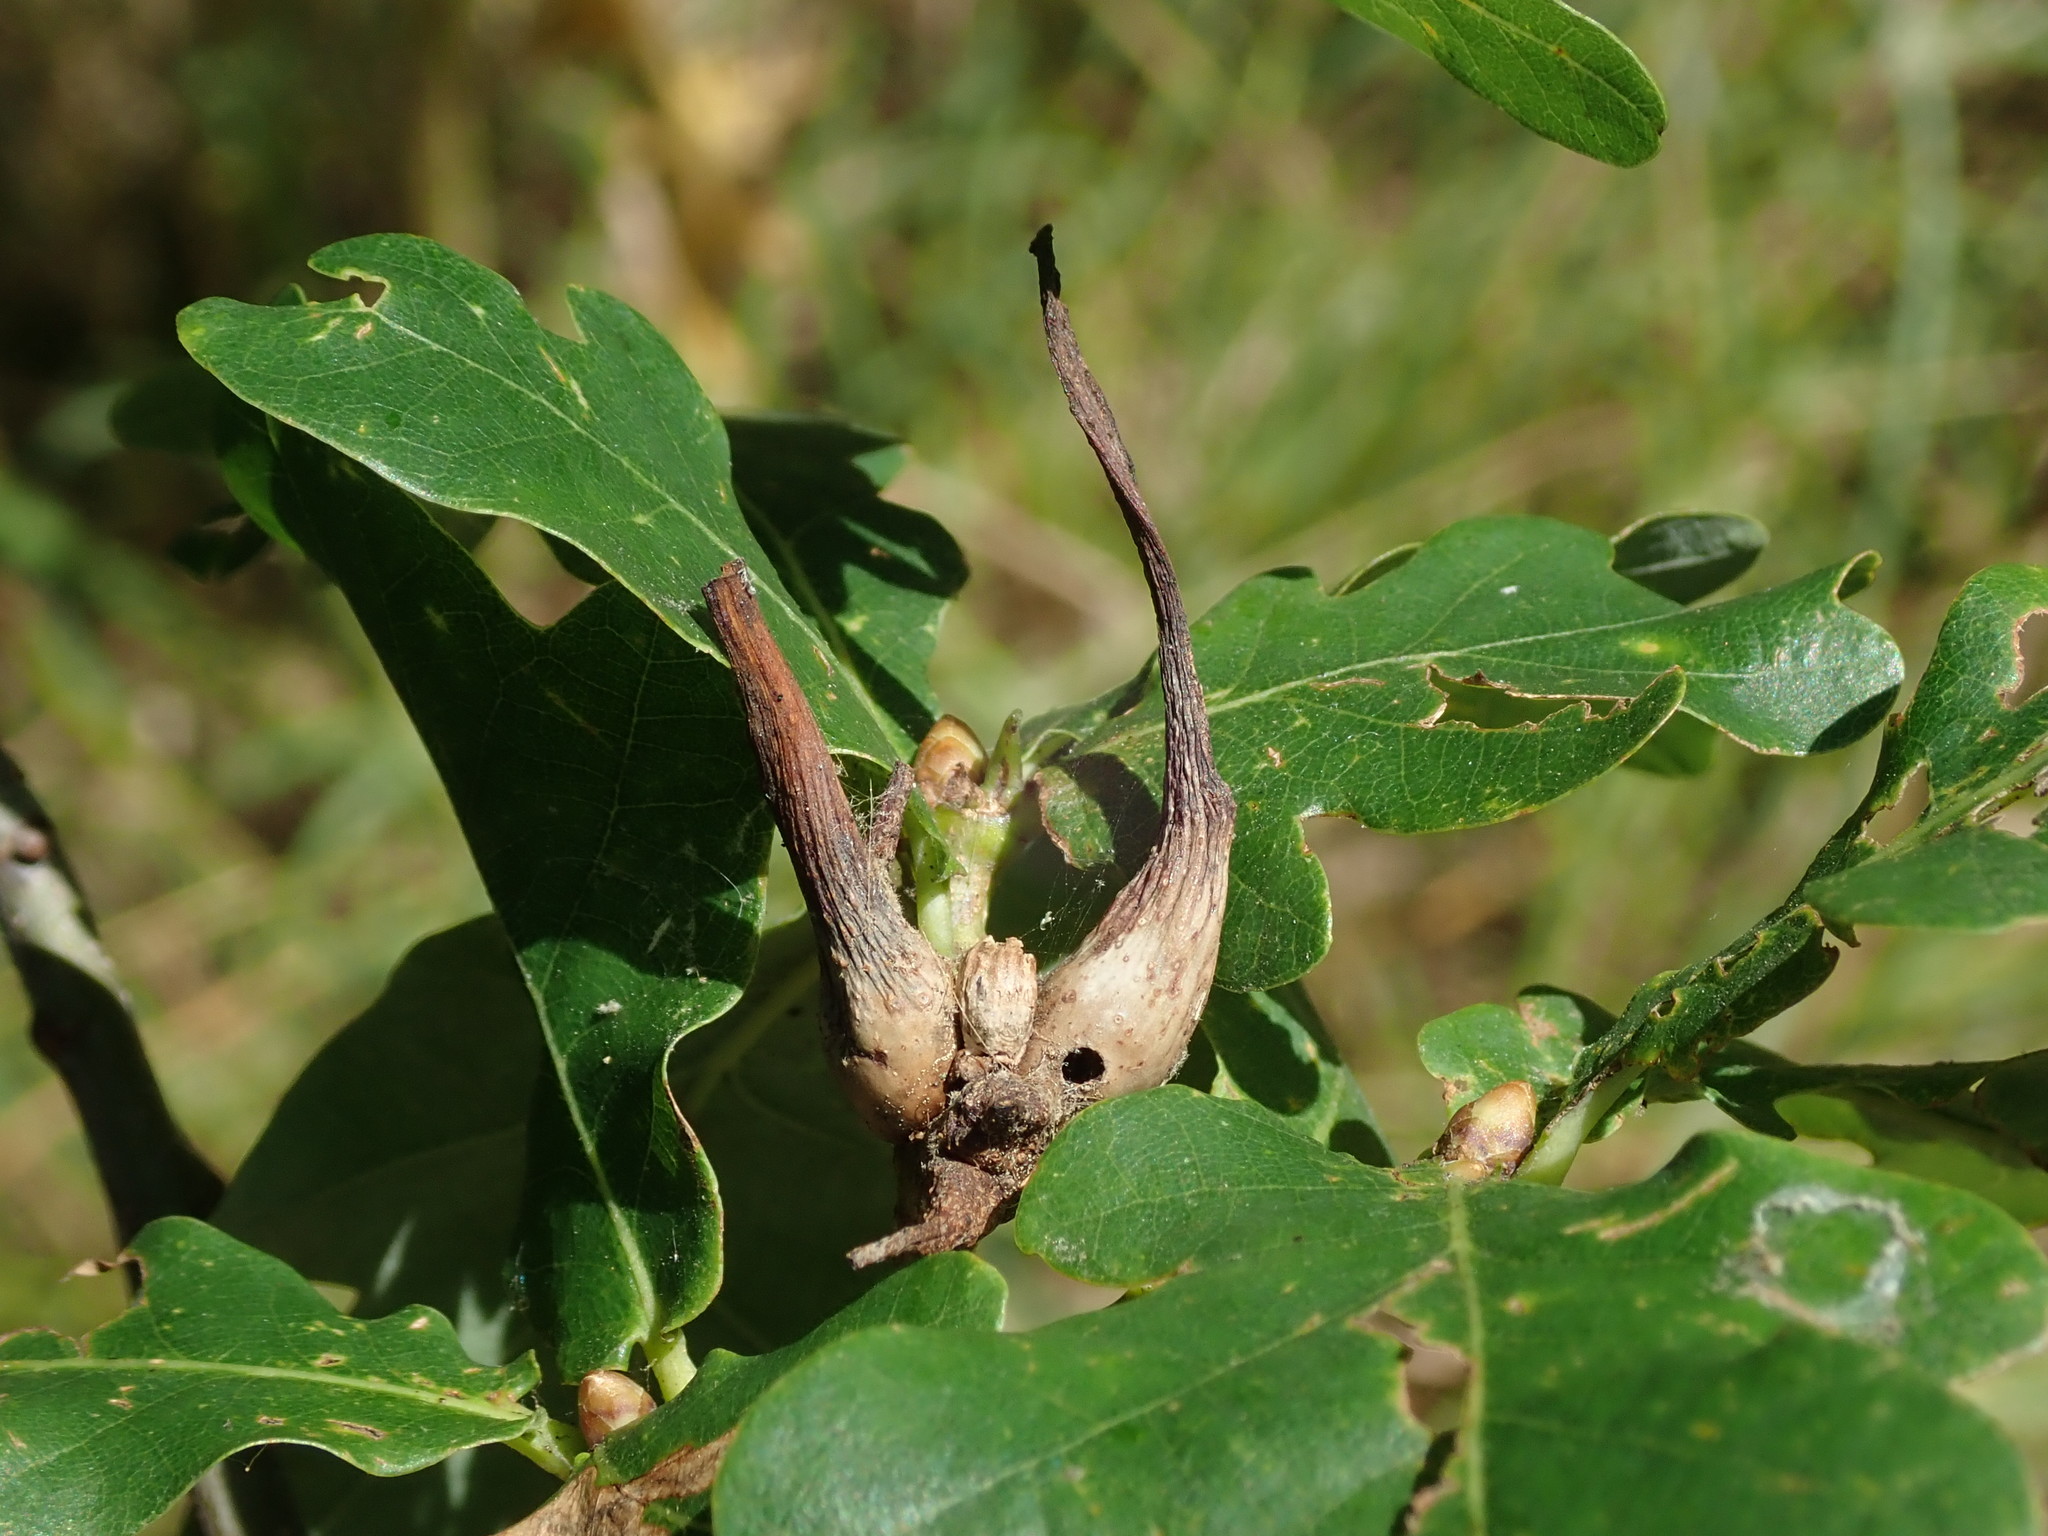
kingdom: Animalia
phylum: Arthropoda
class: Insecta
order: Hymenoptera
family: Cynipidae
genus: Andricus
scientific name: Andricus aries
